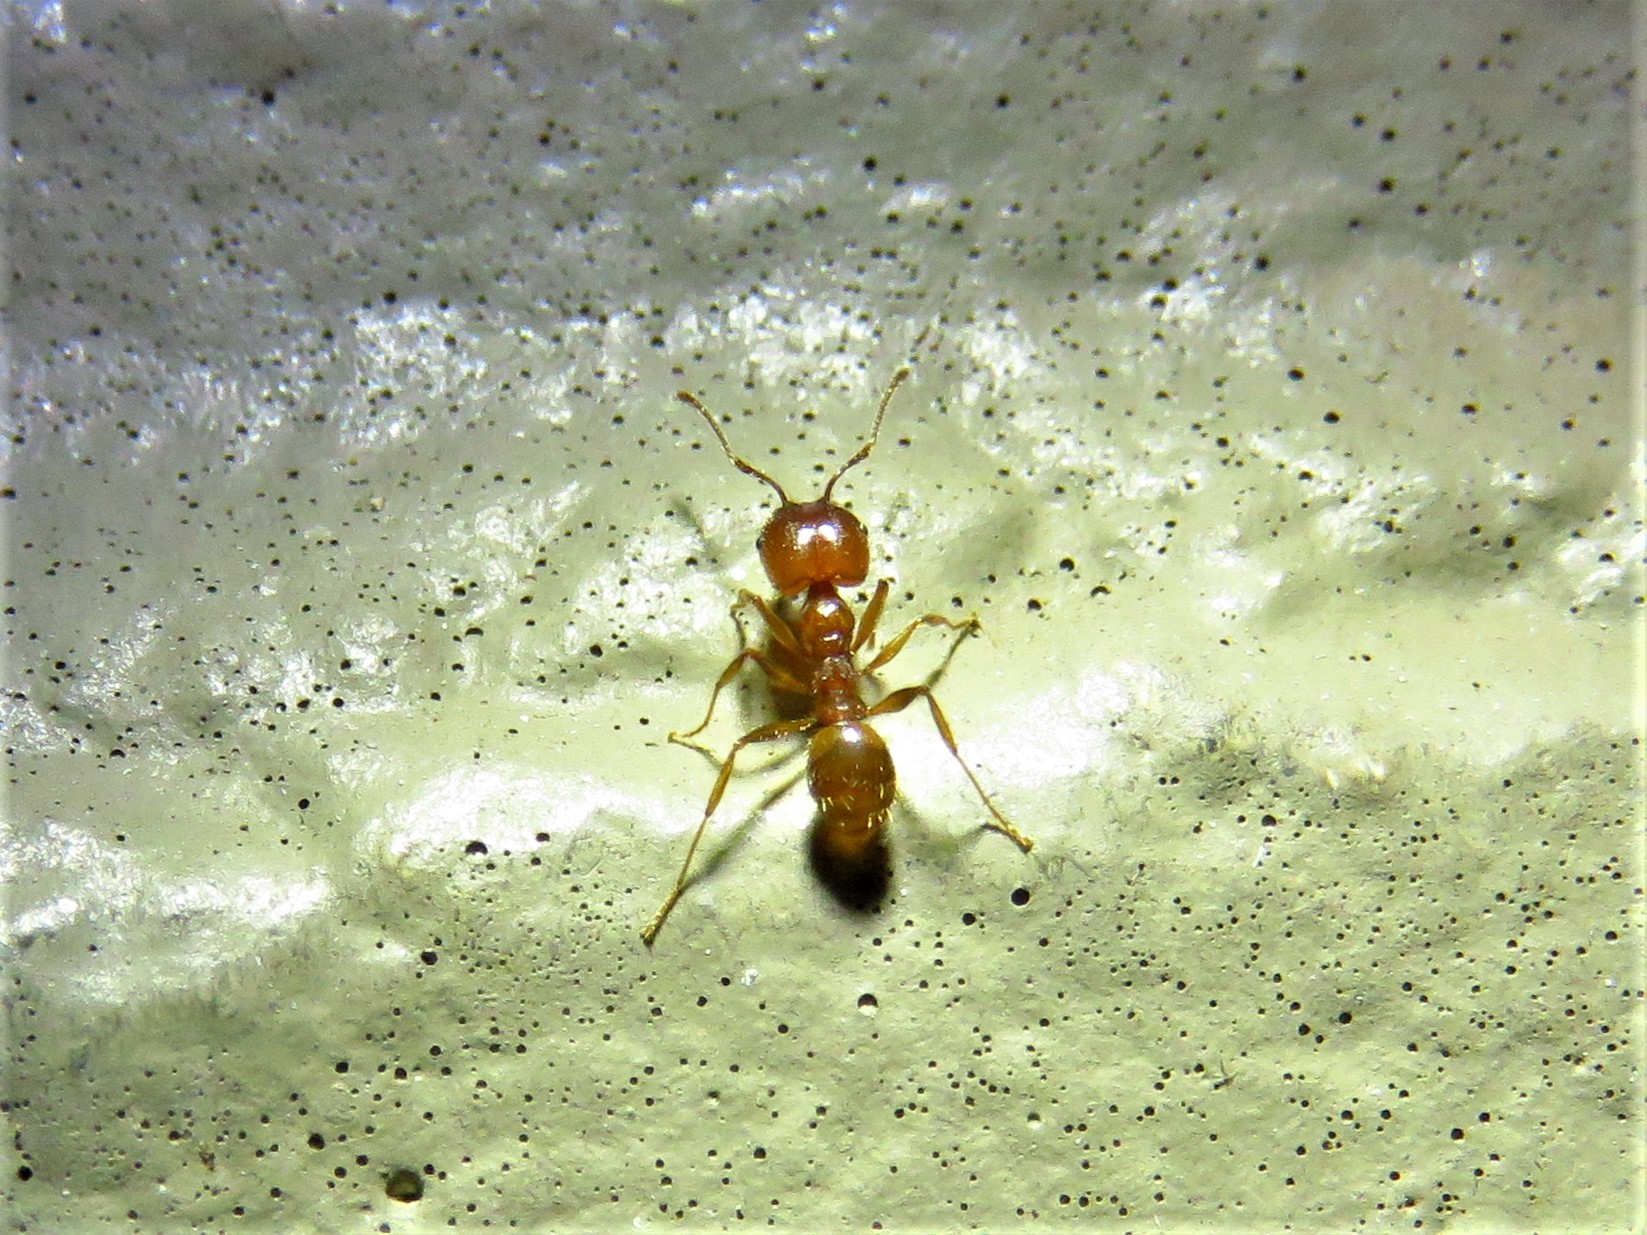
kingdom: Animalia
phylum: Arthropoda
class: Insecta
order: Hymenoptera
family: Formicidae
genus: Pheidole
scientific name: Pheidole dentata
